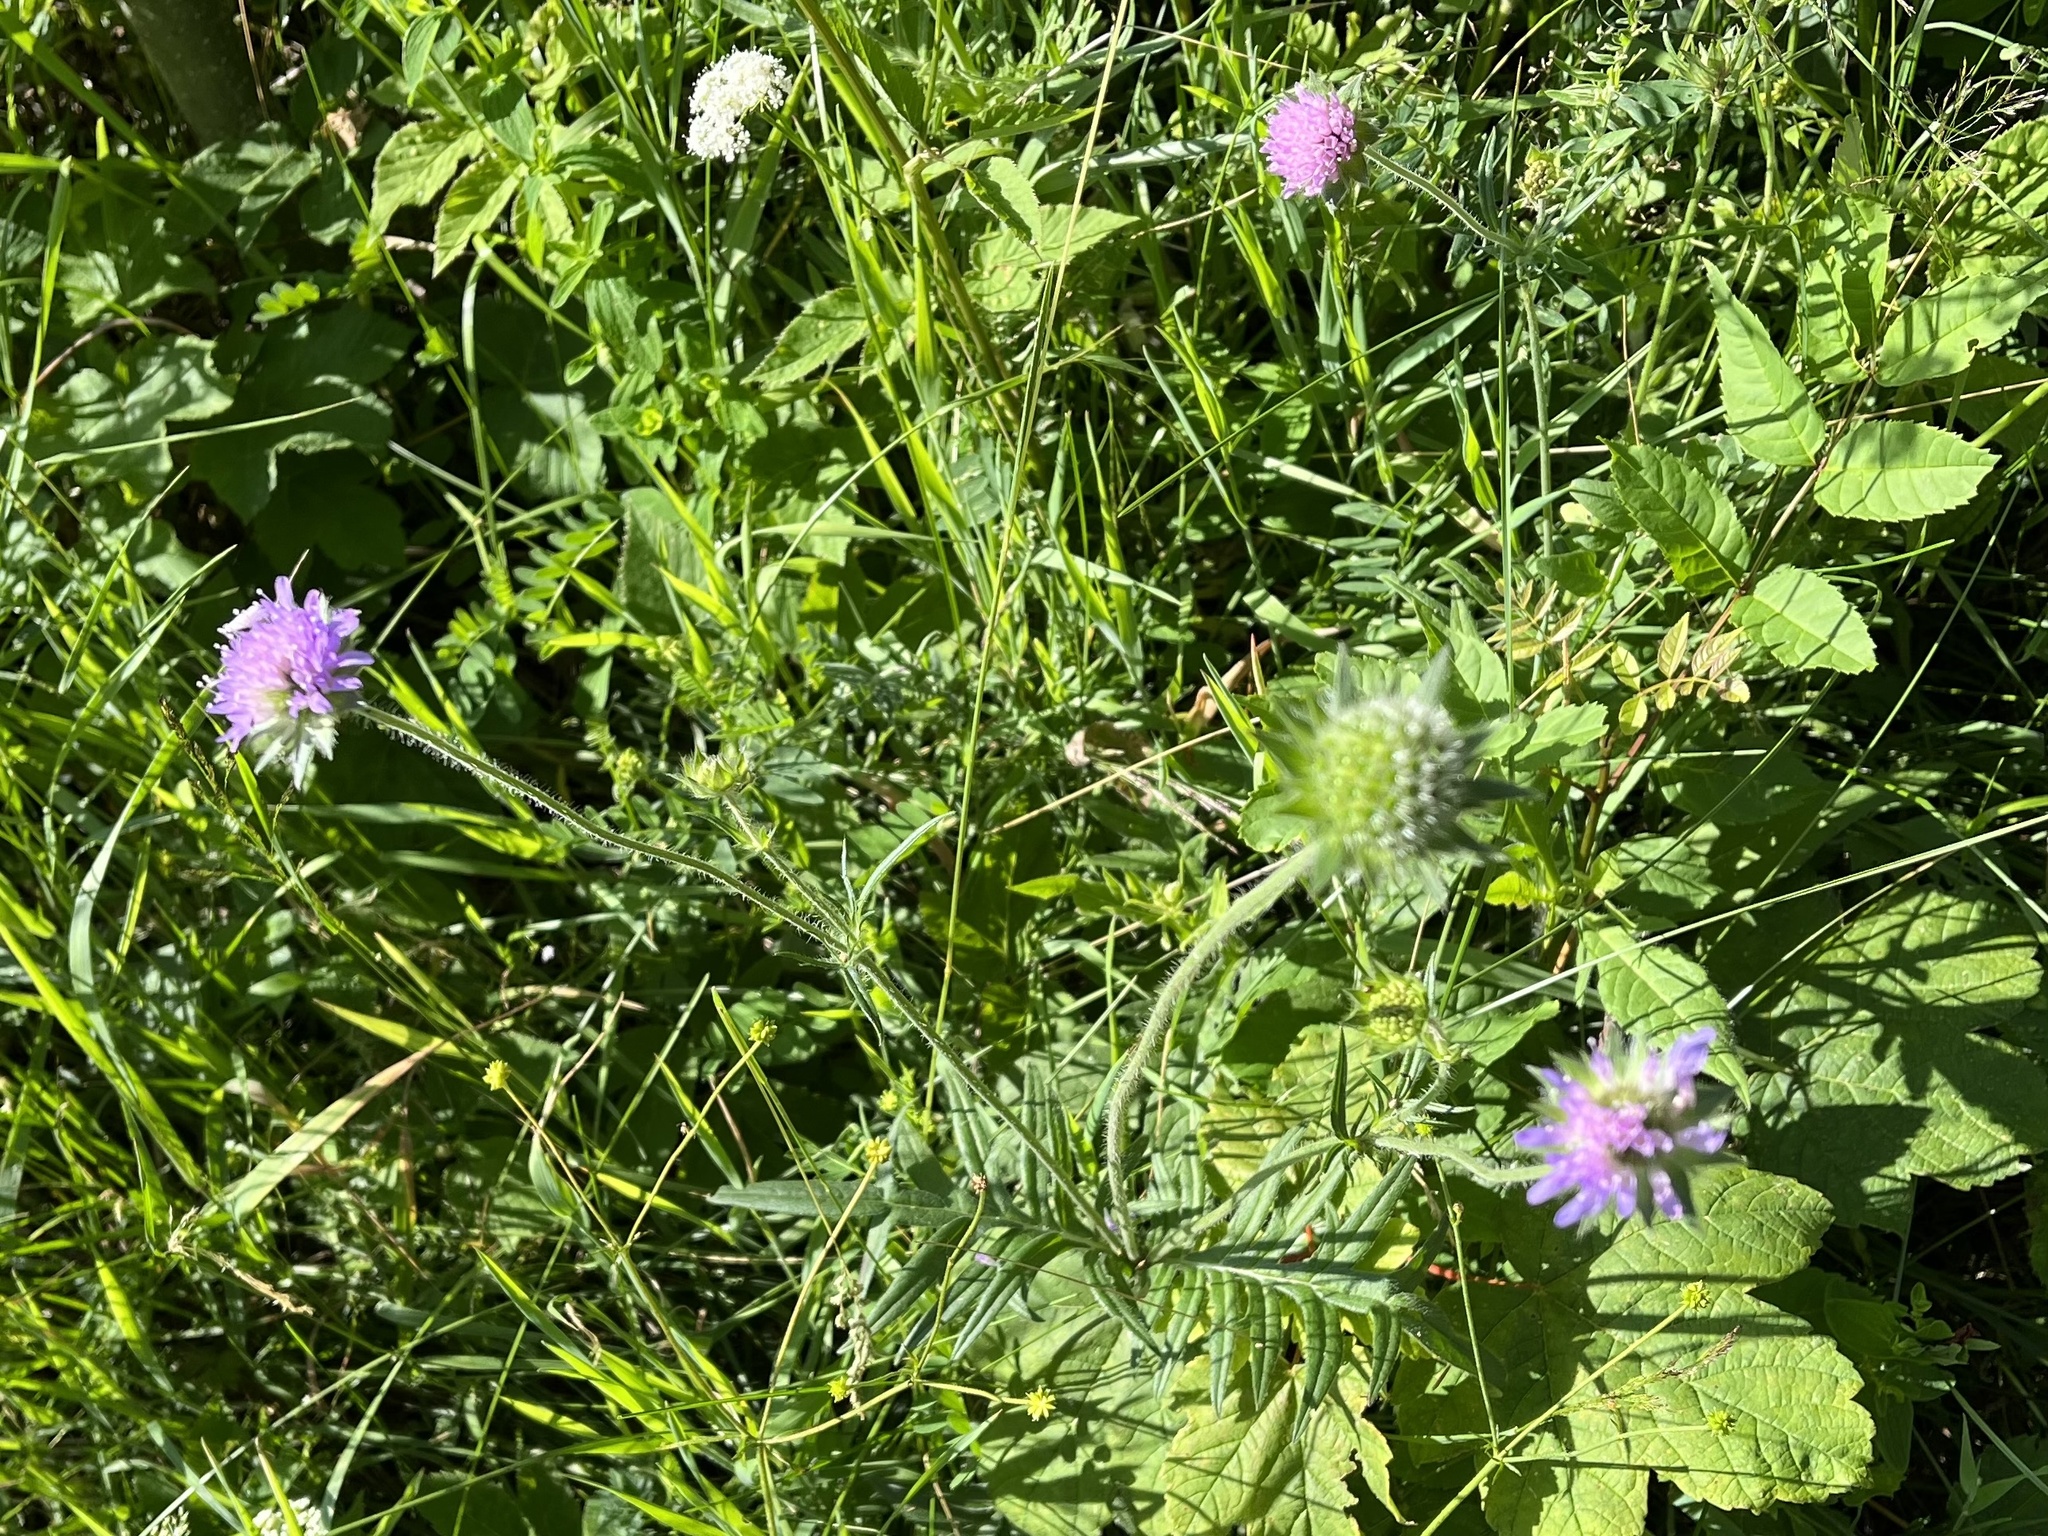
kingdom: Plantae
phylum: Tracheophyta
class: Magnoliopsida
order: Dipsacales
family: Caprifoliaceae
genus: Knautia
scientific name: Knautia arvensis
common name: Field scabiosa
